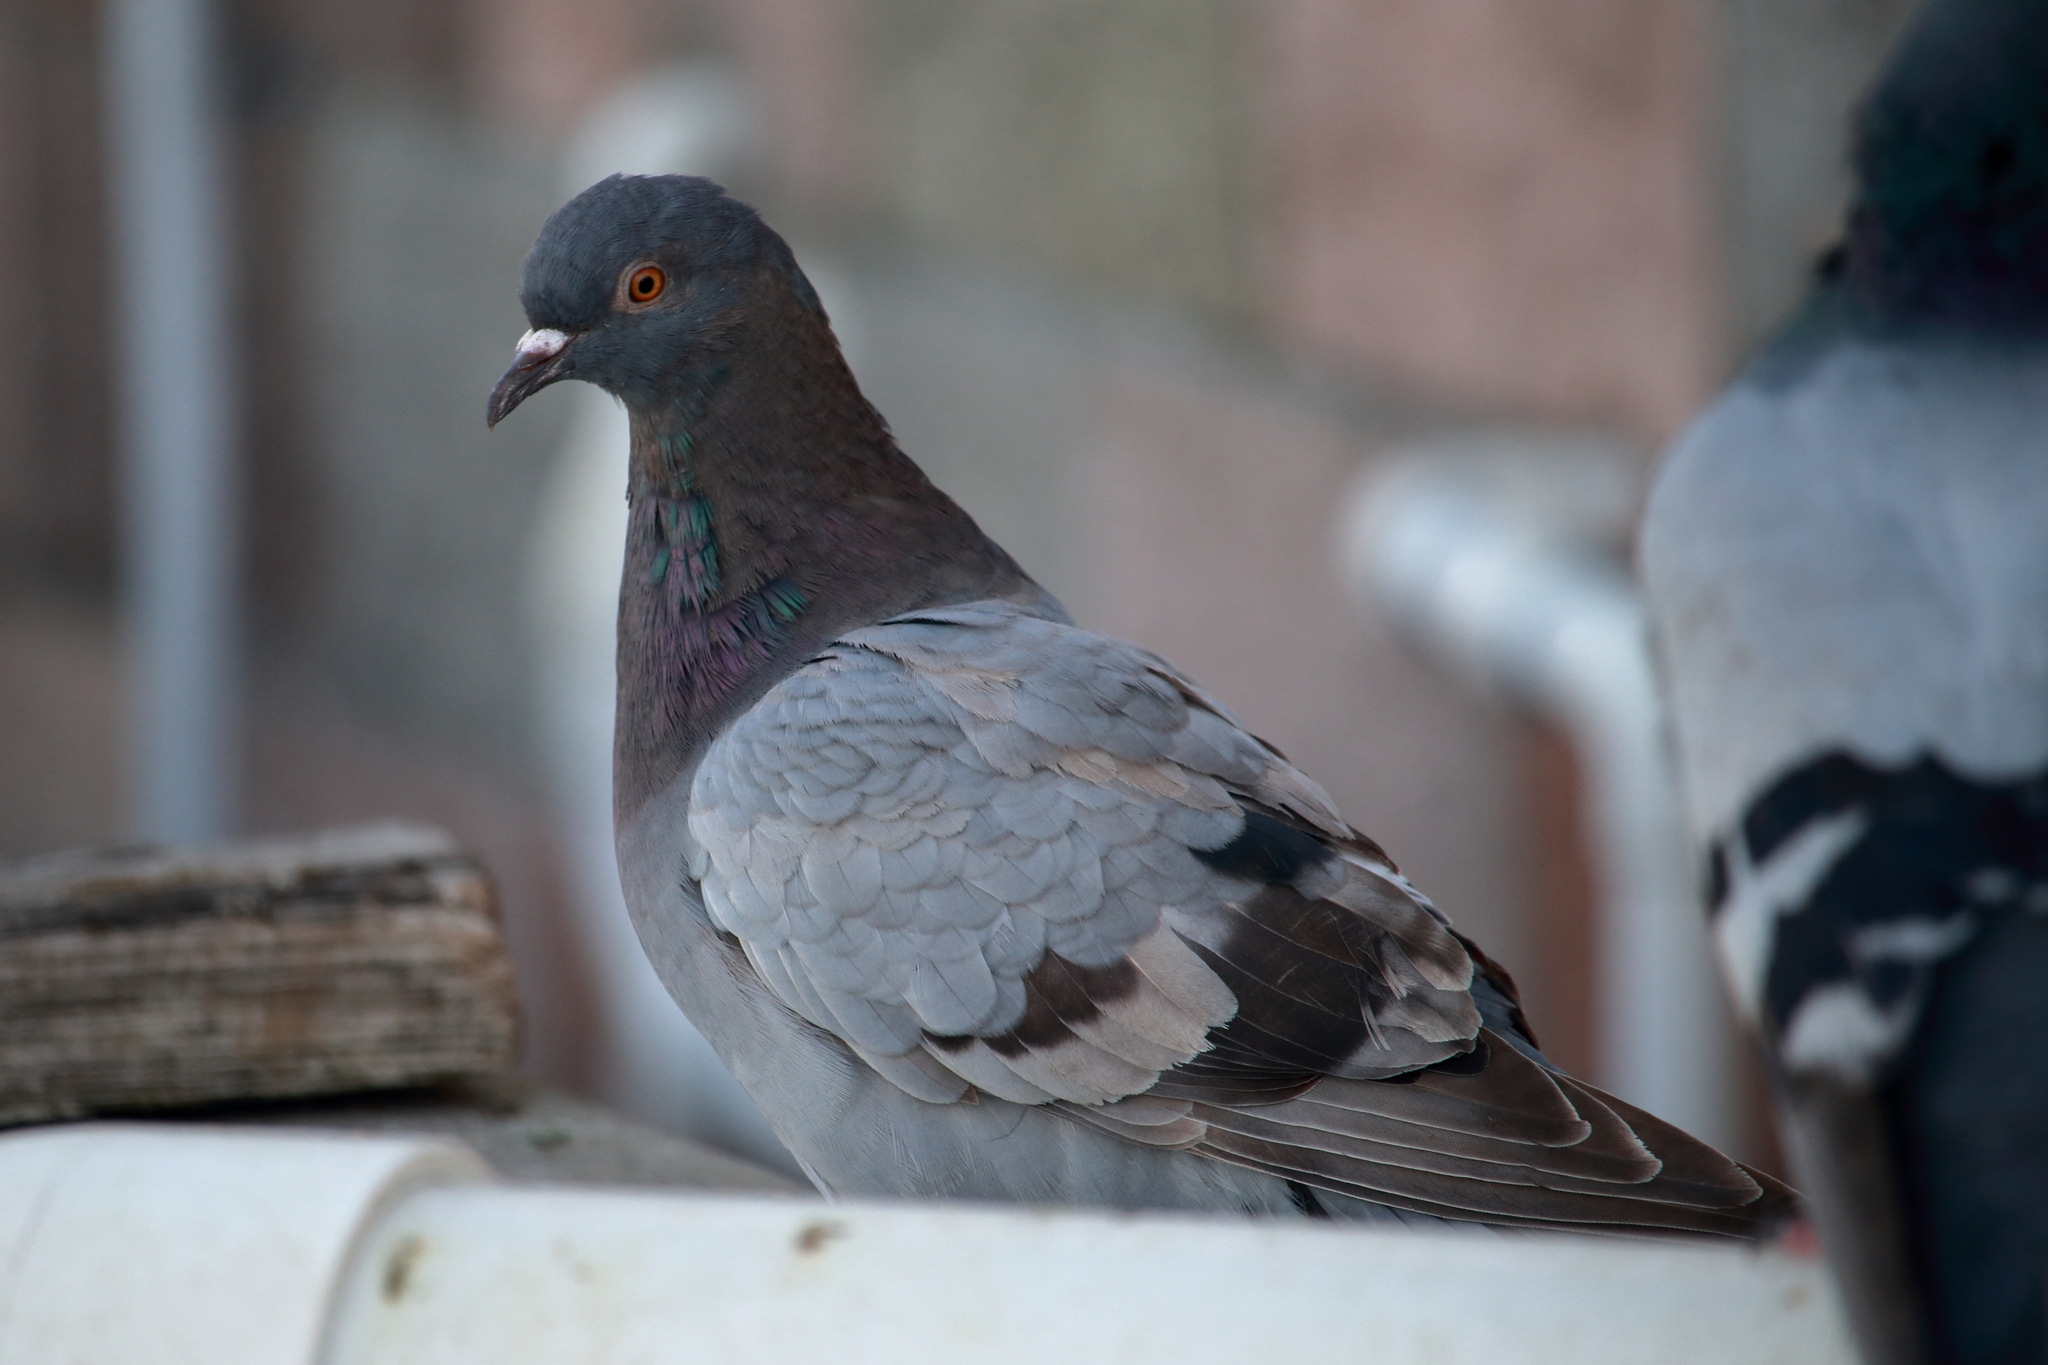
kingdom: Animalia
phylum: Chordata
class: Aves
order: Columbiformes
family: Columbidae
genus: Columba
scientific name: Columba livia
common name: Rock pigeon
